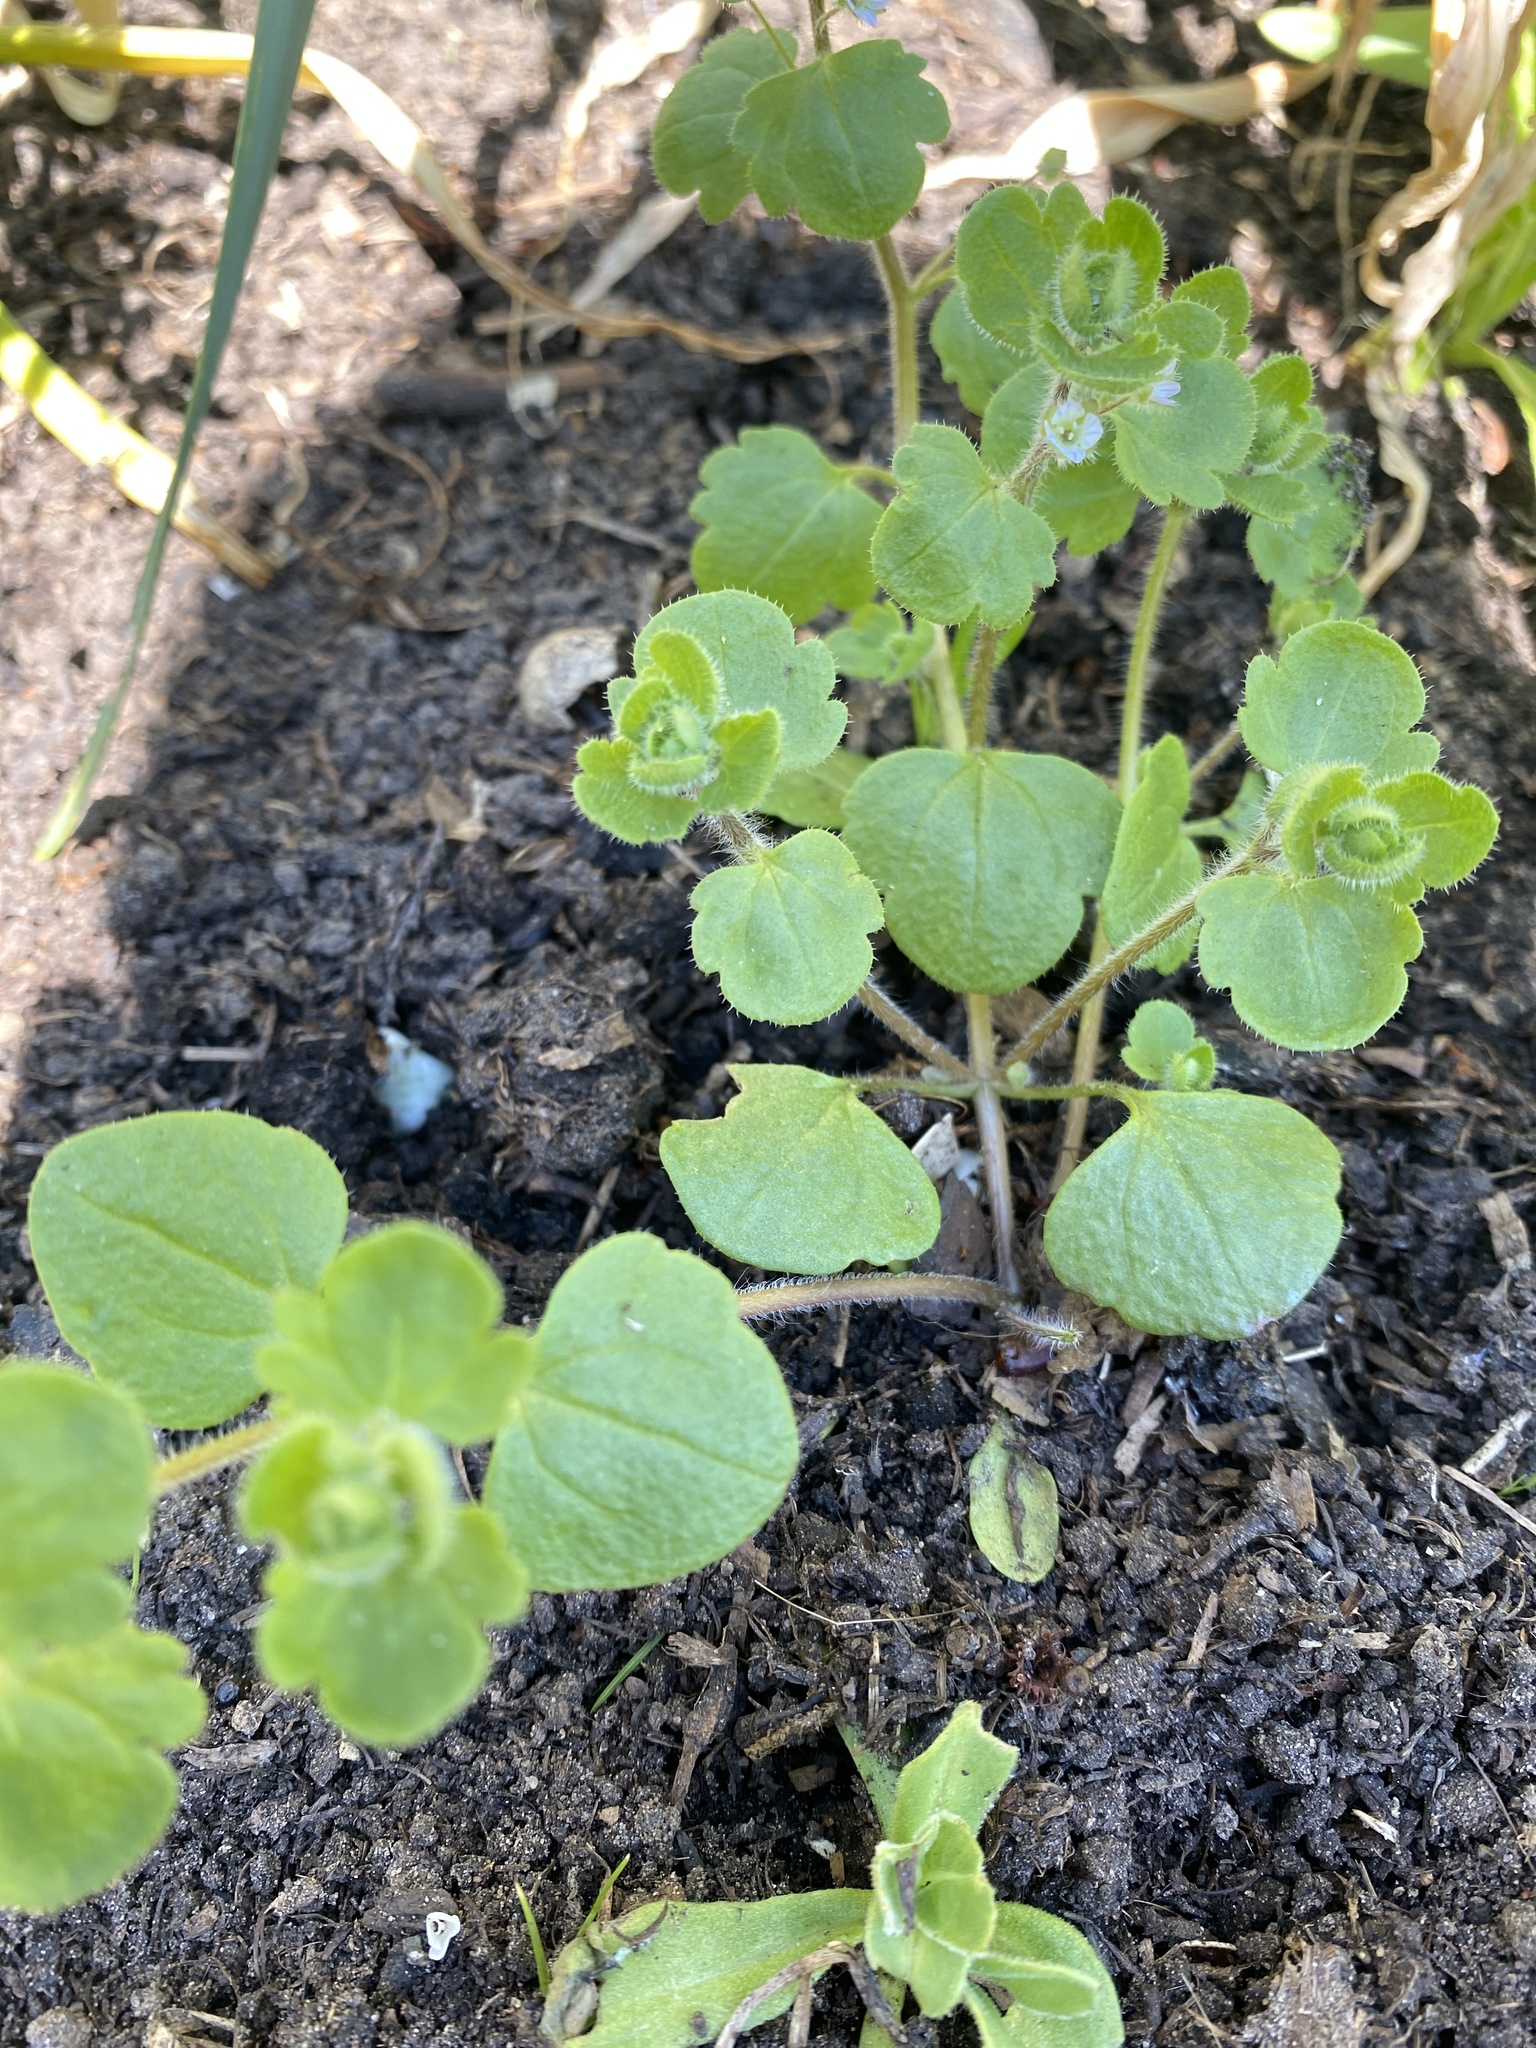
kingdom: Plantae
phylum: Tracheophyta
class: Magnoliopsida
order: Lamiales
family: Plantaginaceae
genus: Veronica
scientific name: Veronica sublobata
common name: False ivy-leaved speedwell
